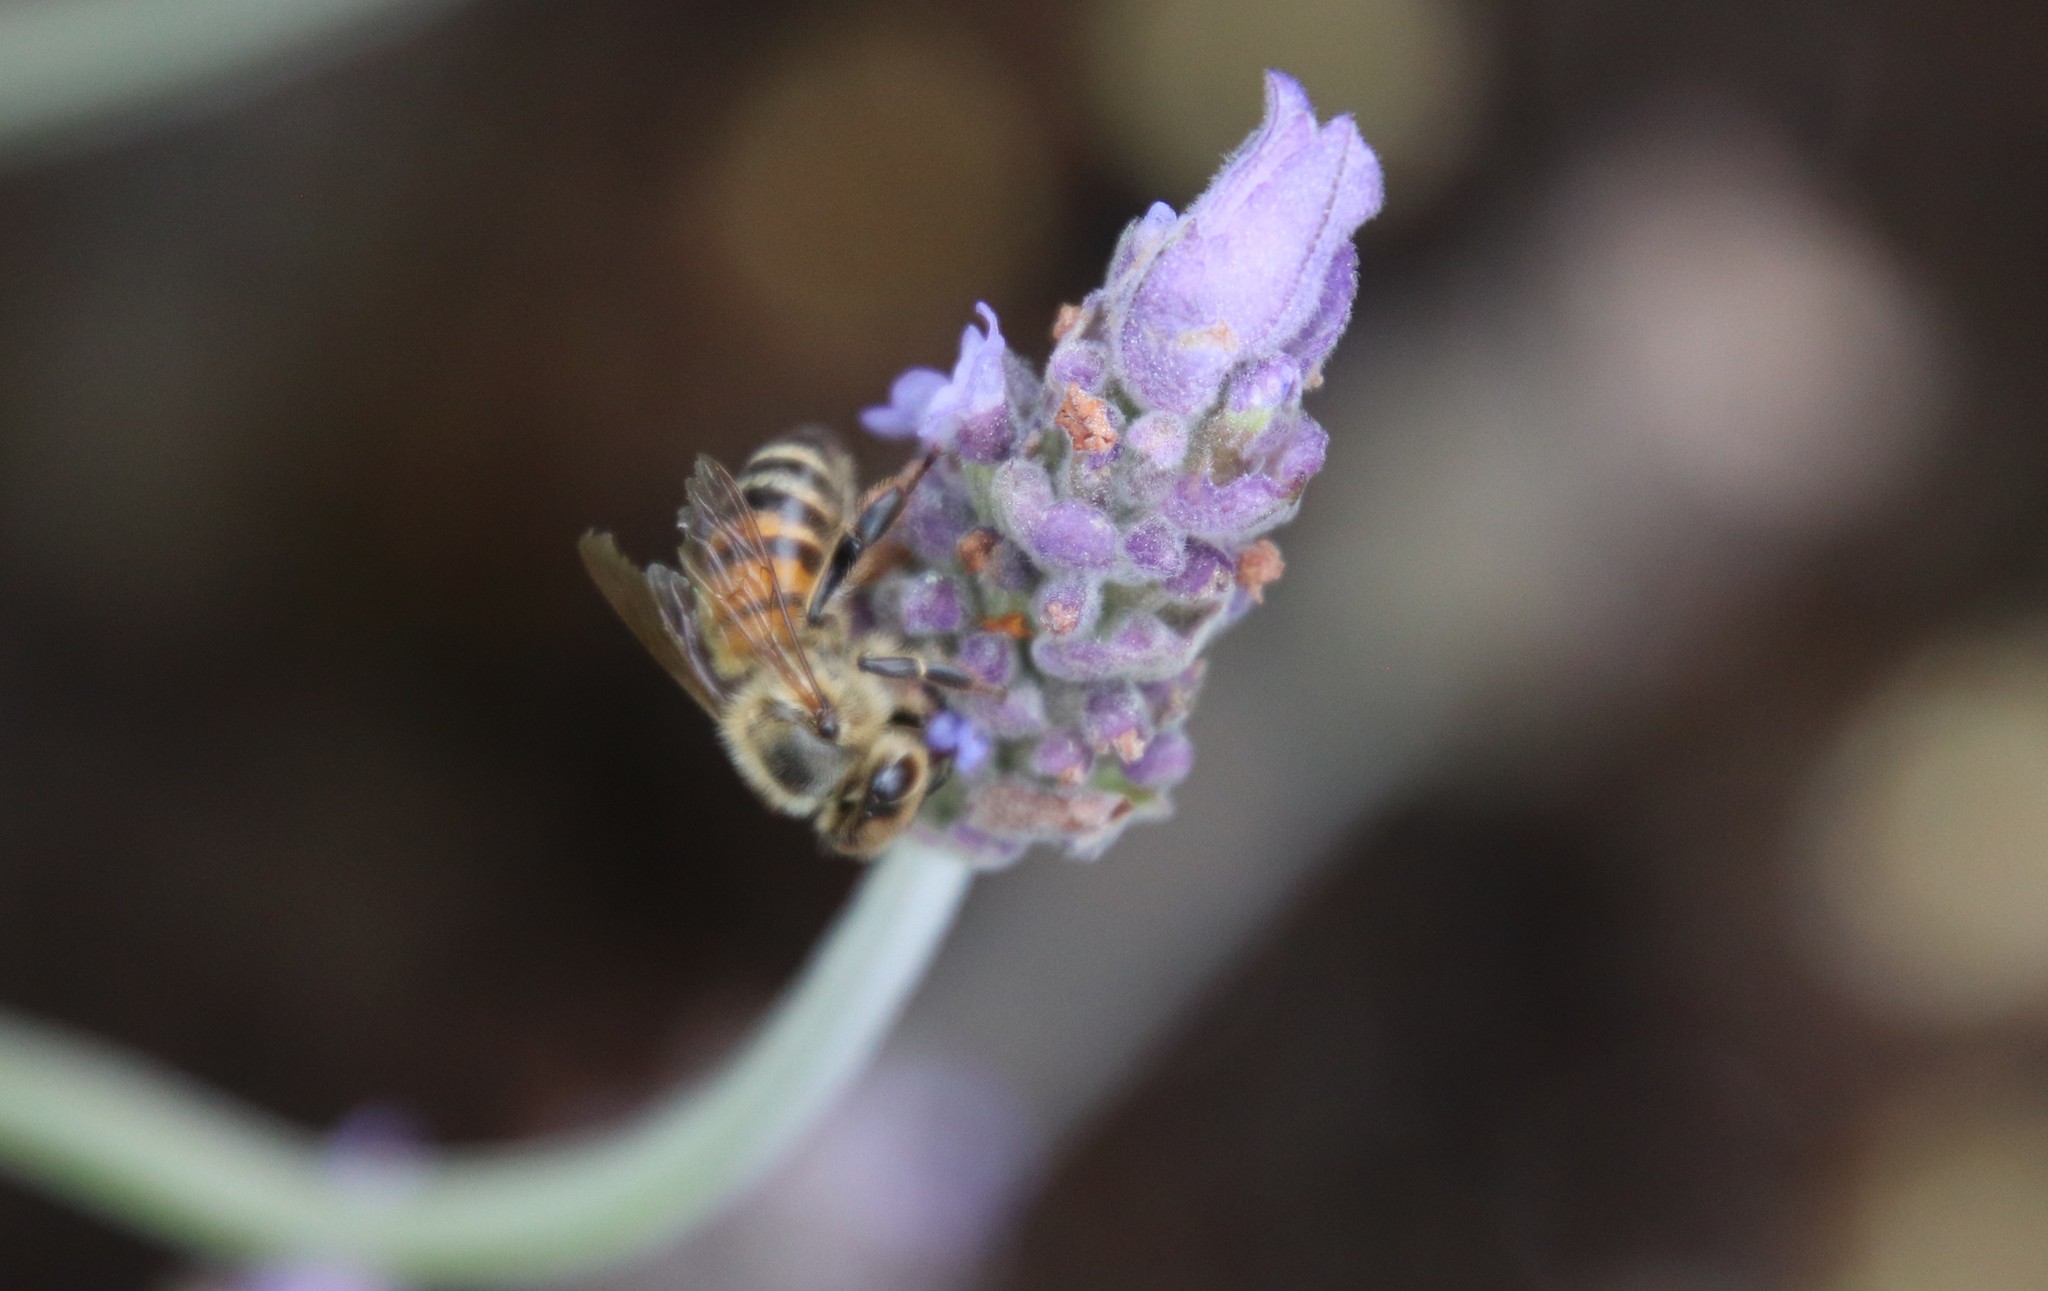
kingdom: Animalia
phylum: Arthropoda
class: Insecta
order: Hymenoptera
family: Apidae
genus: Apis
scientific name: Apis mellifera
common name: Honey bee
